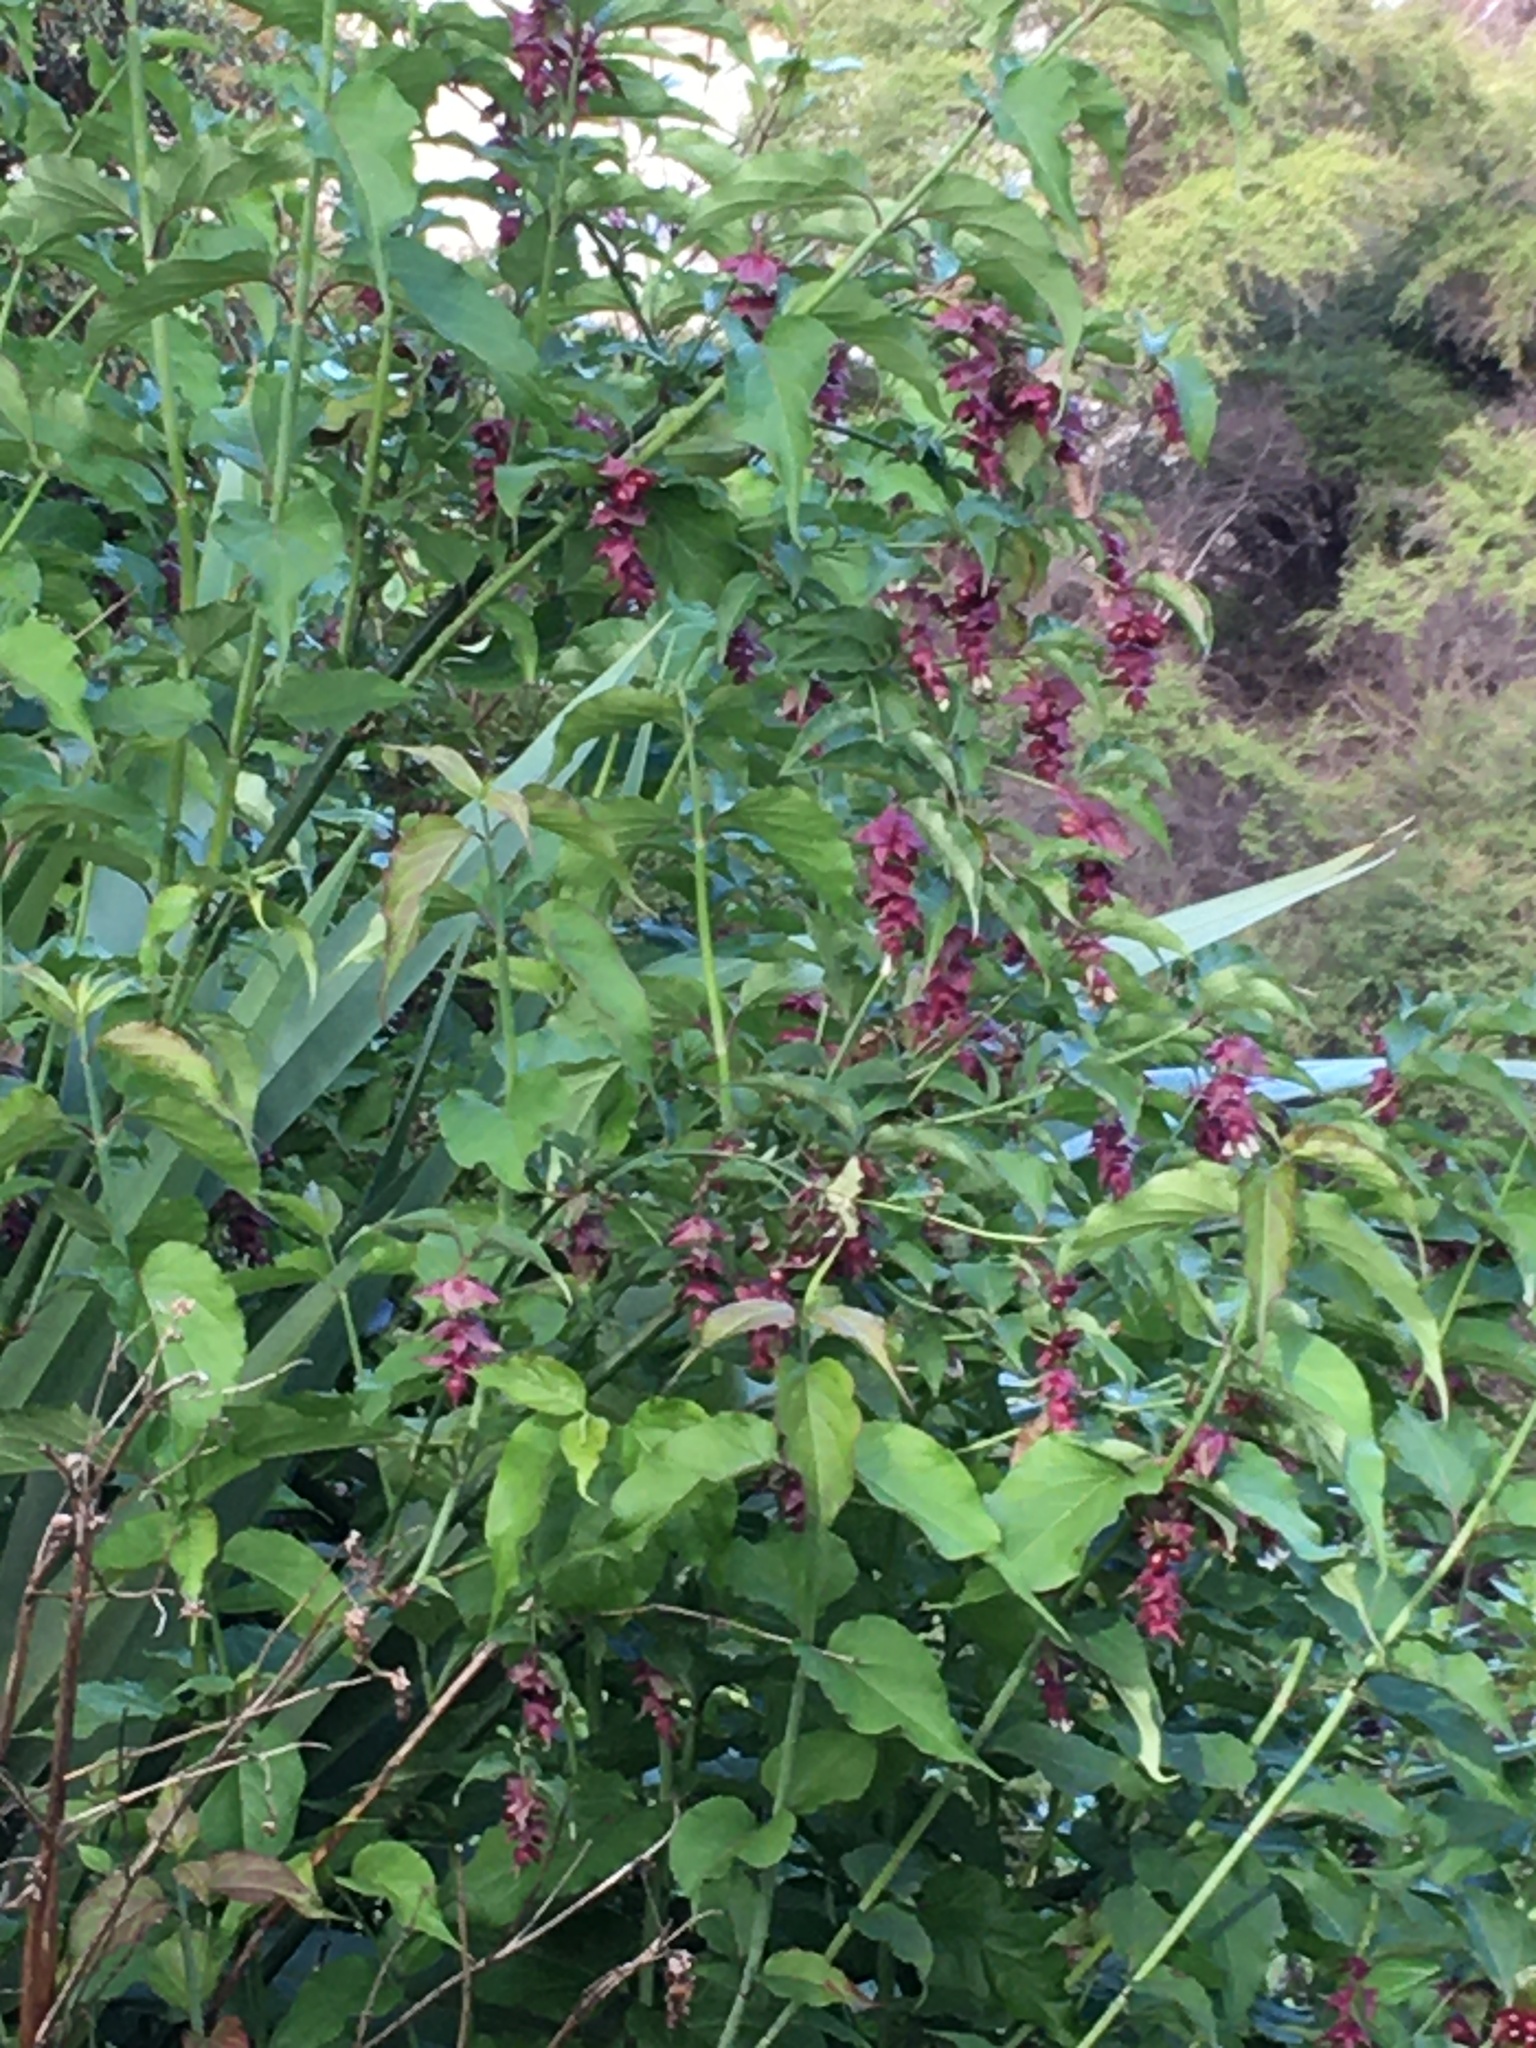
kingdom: Plantae
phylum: Tracheophyta
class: Magnoliopsida
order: Dipsacales
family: Caprifoliaceae
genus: Leycesteria
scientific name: Leycesteria formosa
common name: Himalayan honeysuckle
